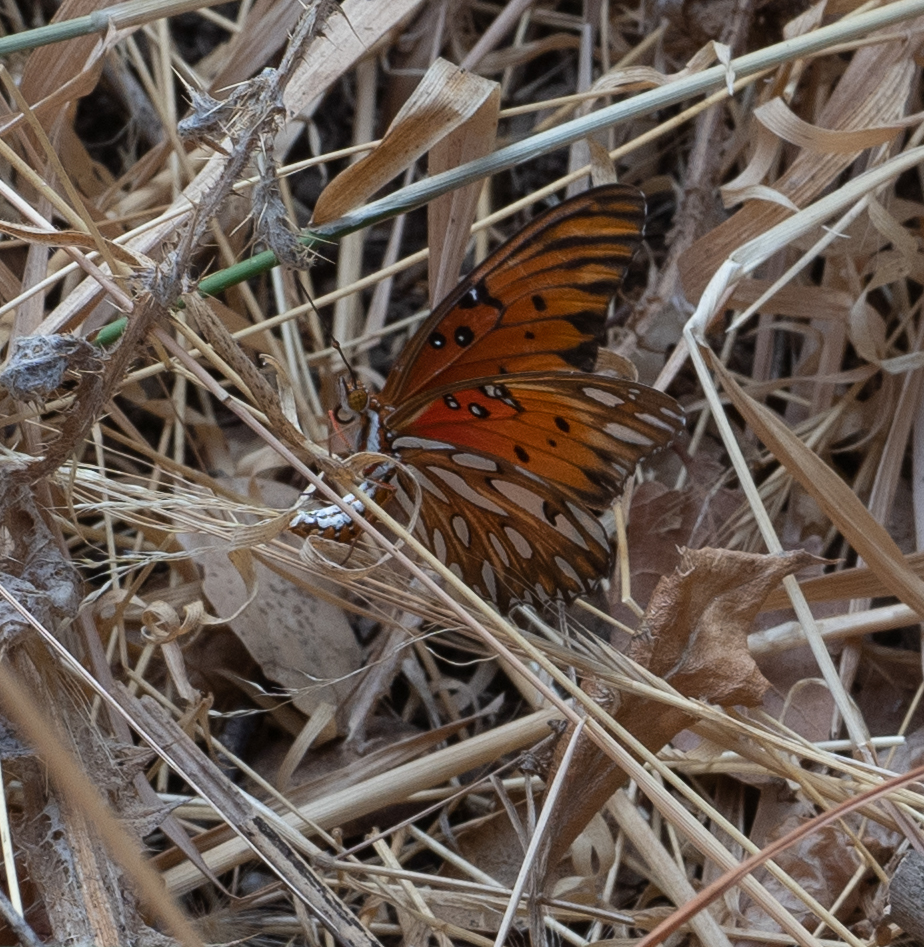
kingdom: Animalia
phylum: Arthropoda
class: Insecta
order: Lepidoptera
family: Nymphalidae
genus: Dione
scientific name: Dione vanillae
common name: Gulf fritillary
